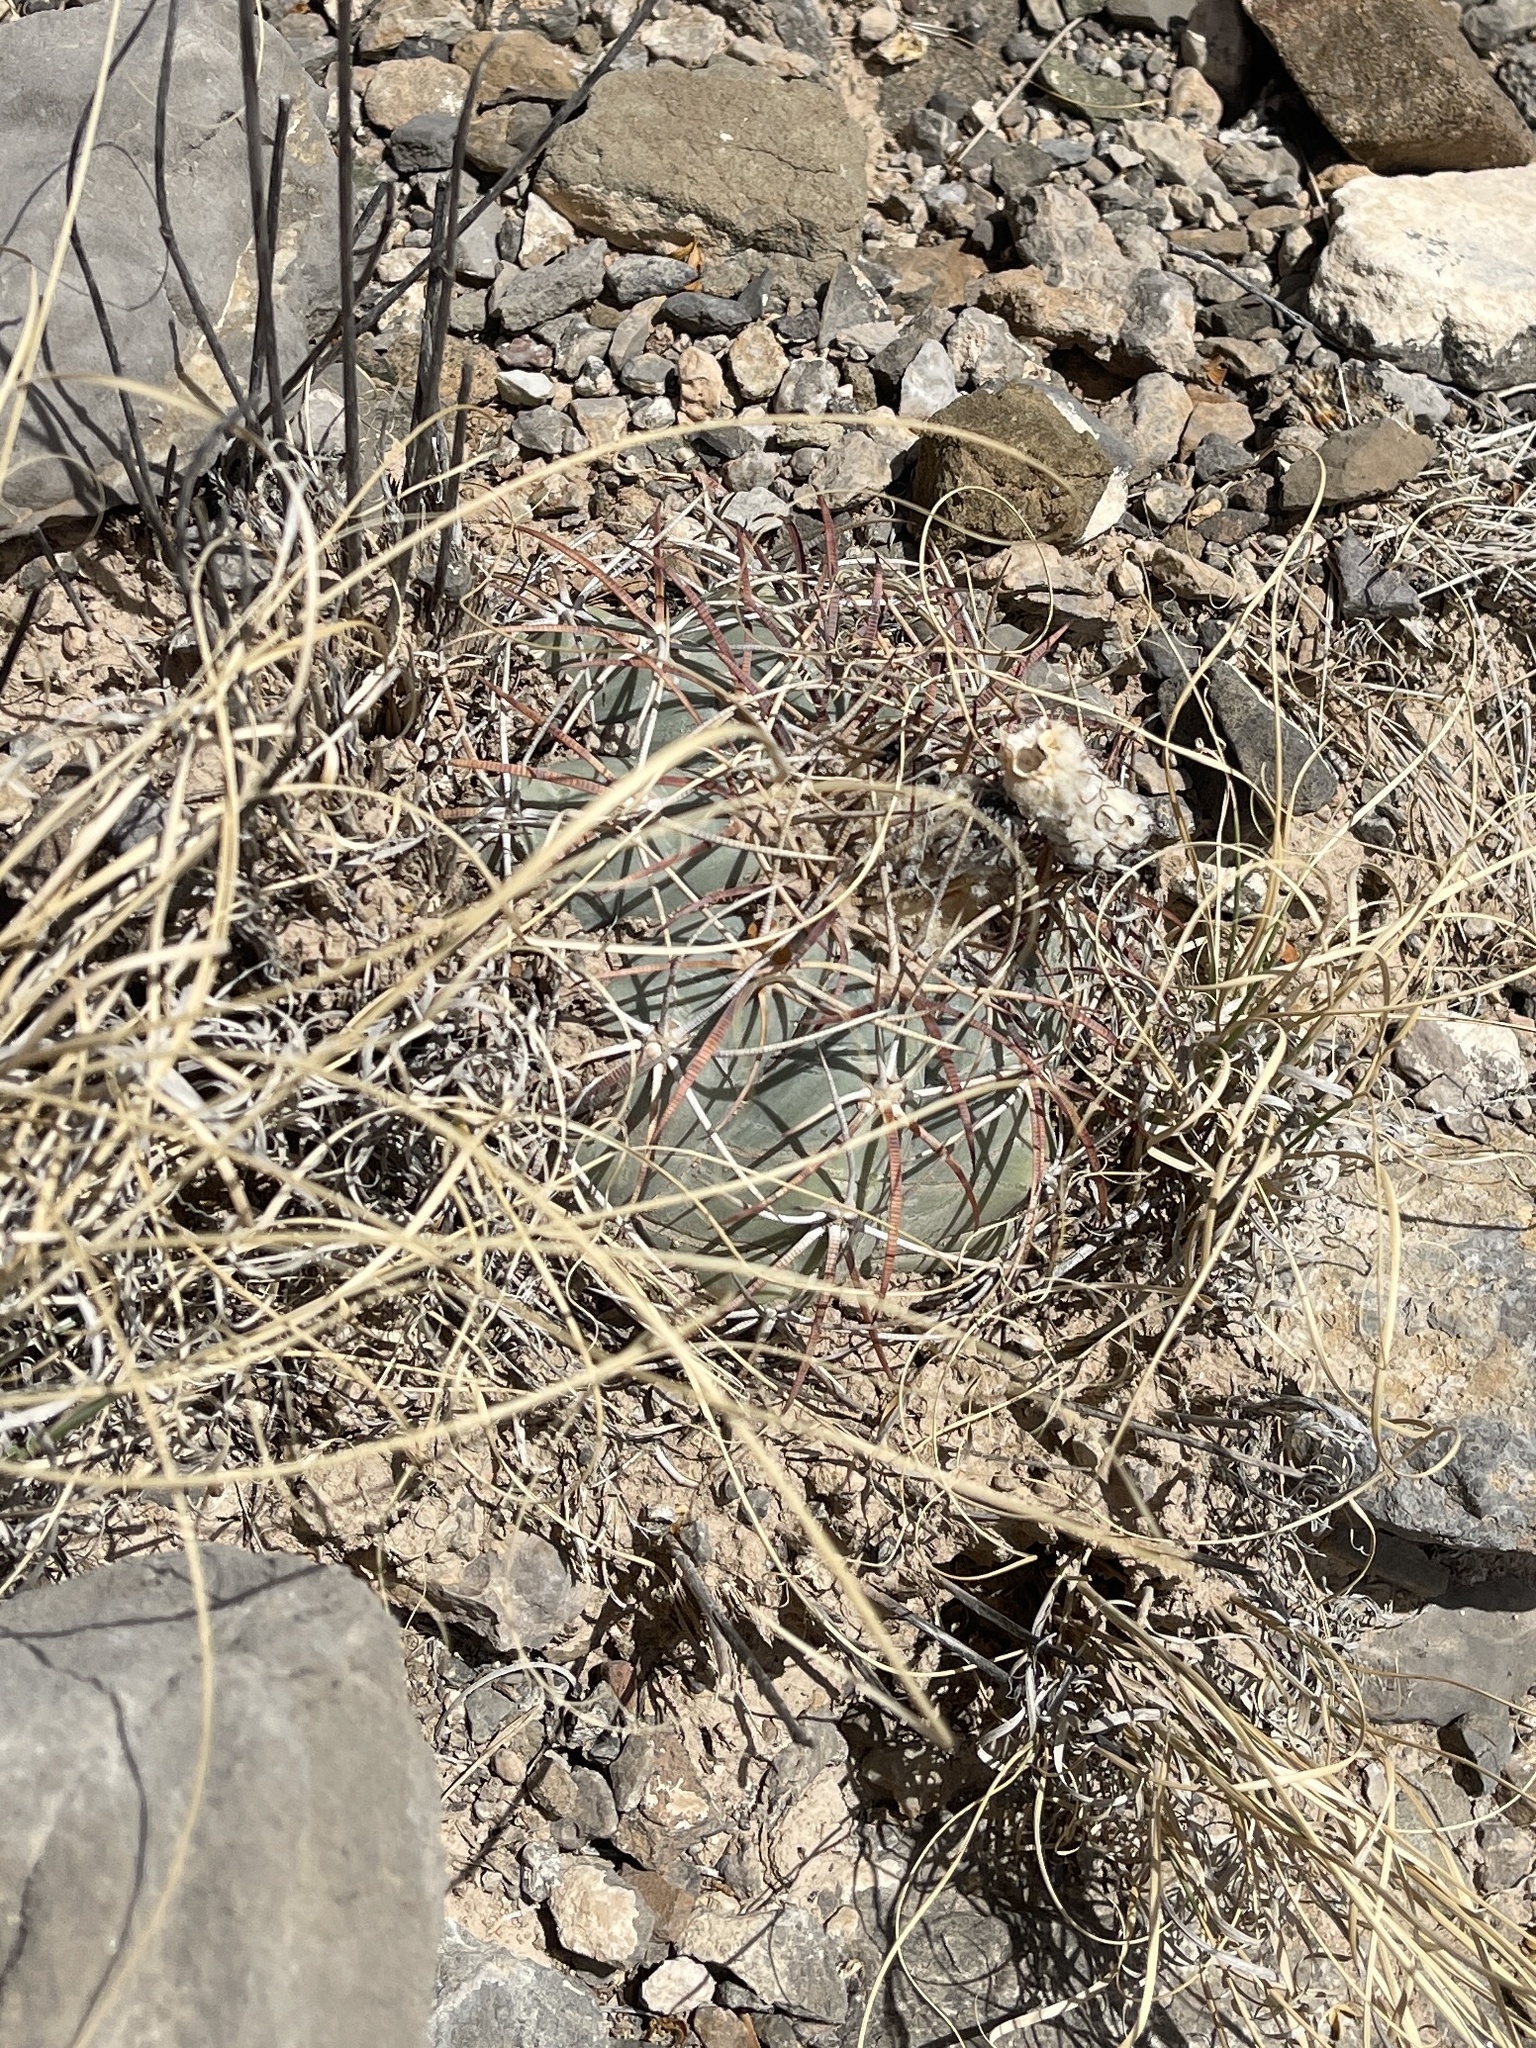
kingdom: Plantae
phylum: Tracheophyta
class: Magnoliopsida
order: Caryophyllales
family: Cactaceae
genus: Echinocactus
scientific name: Echinocactus horizonthalonius
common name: Devilshead
